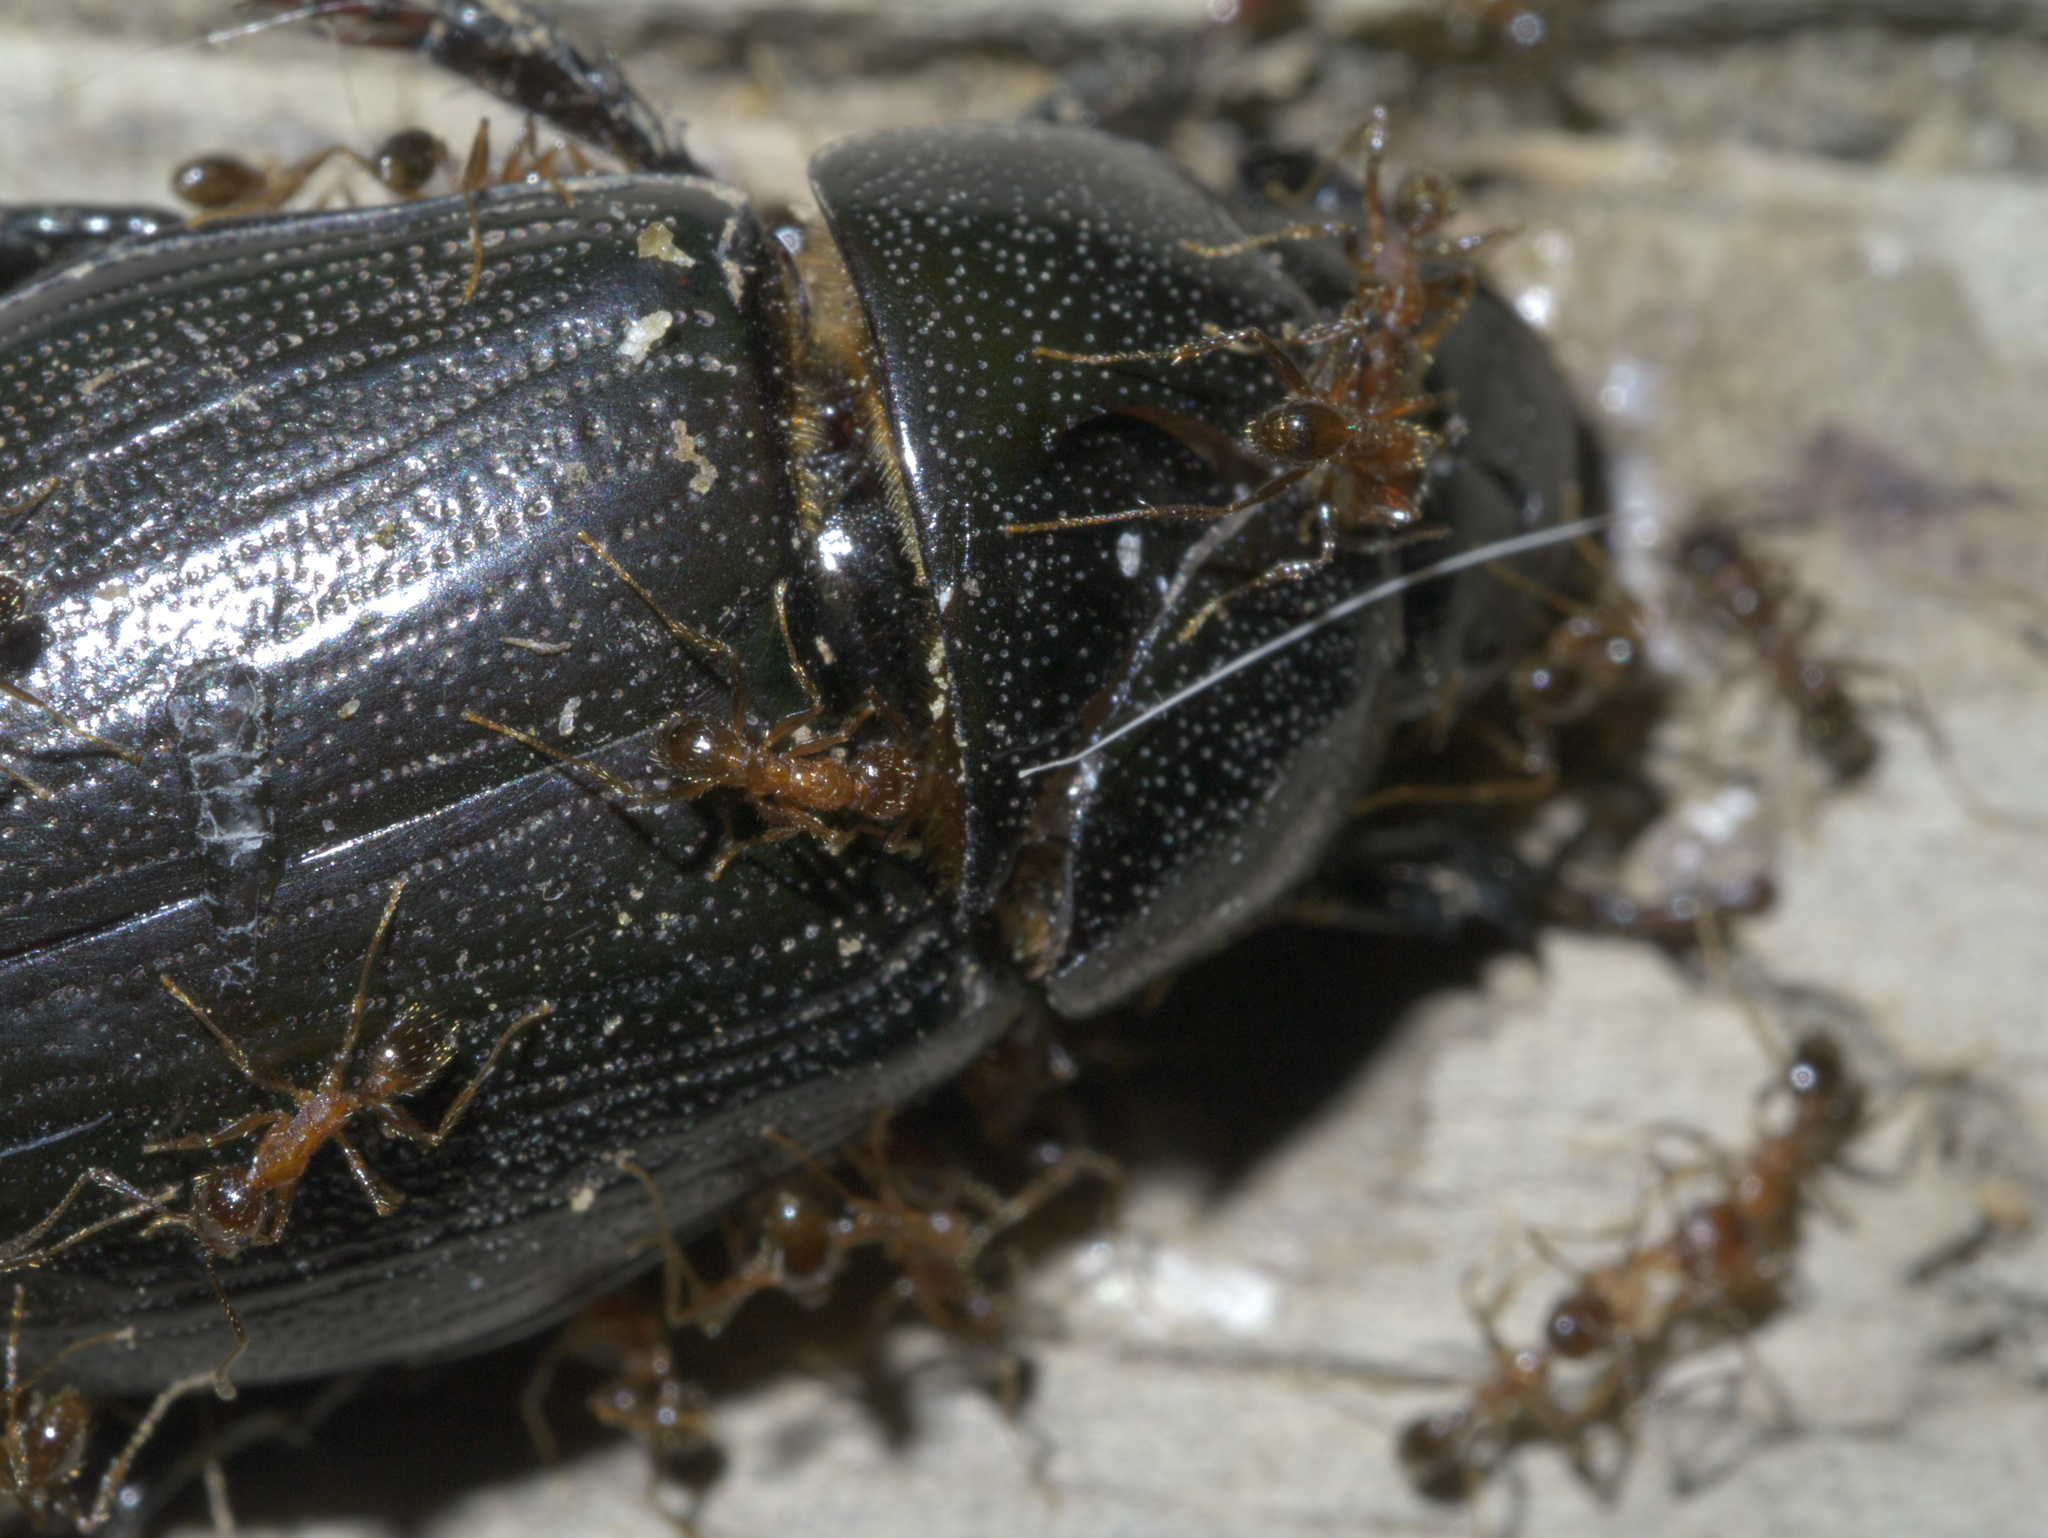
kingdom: Animalia
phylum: Arthropoda
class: Insecta
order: Hymenoptera
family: Formicidae
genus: Pheidole
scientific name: Pheidole dentata
